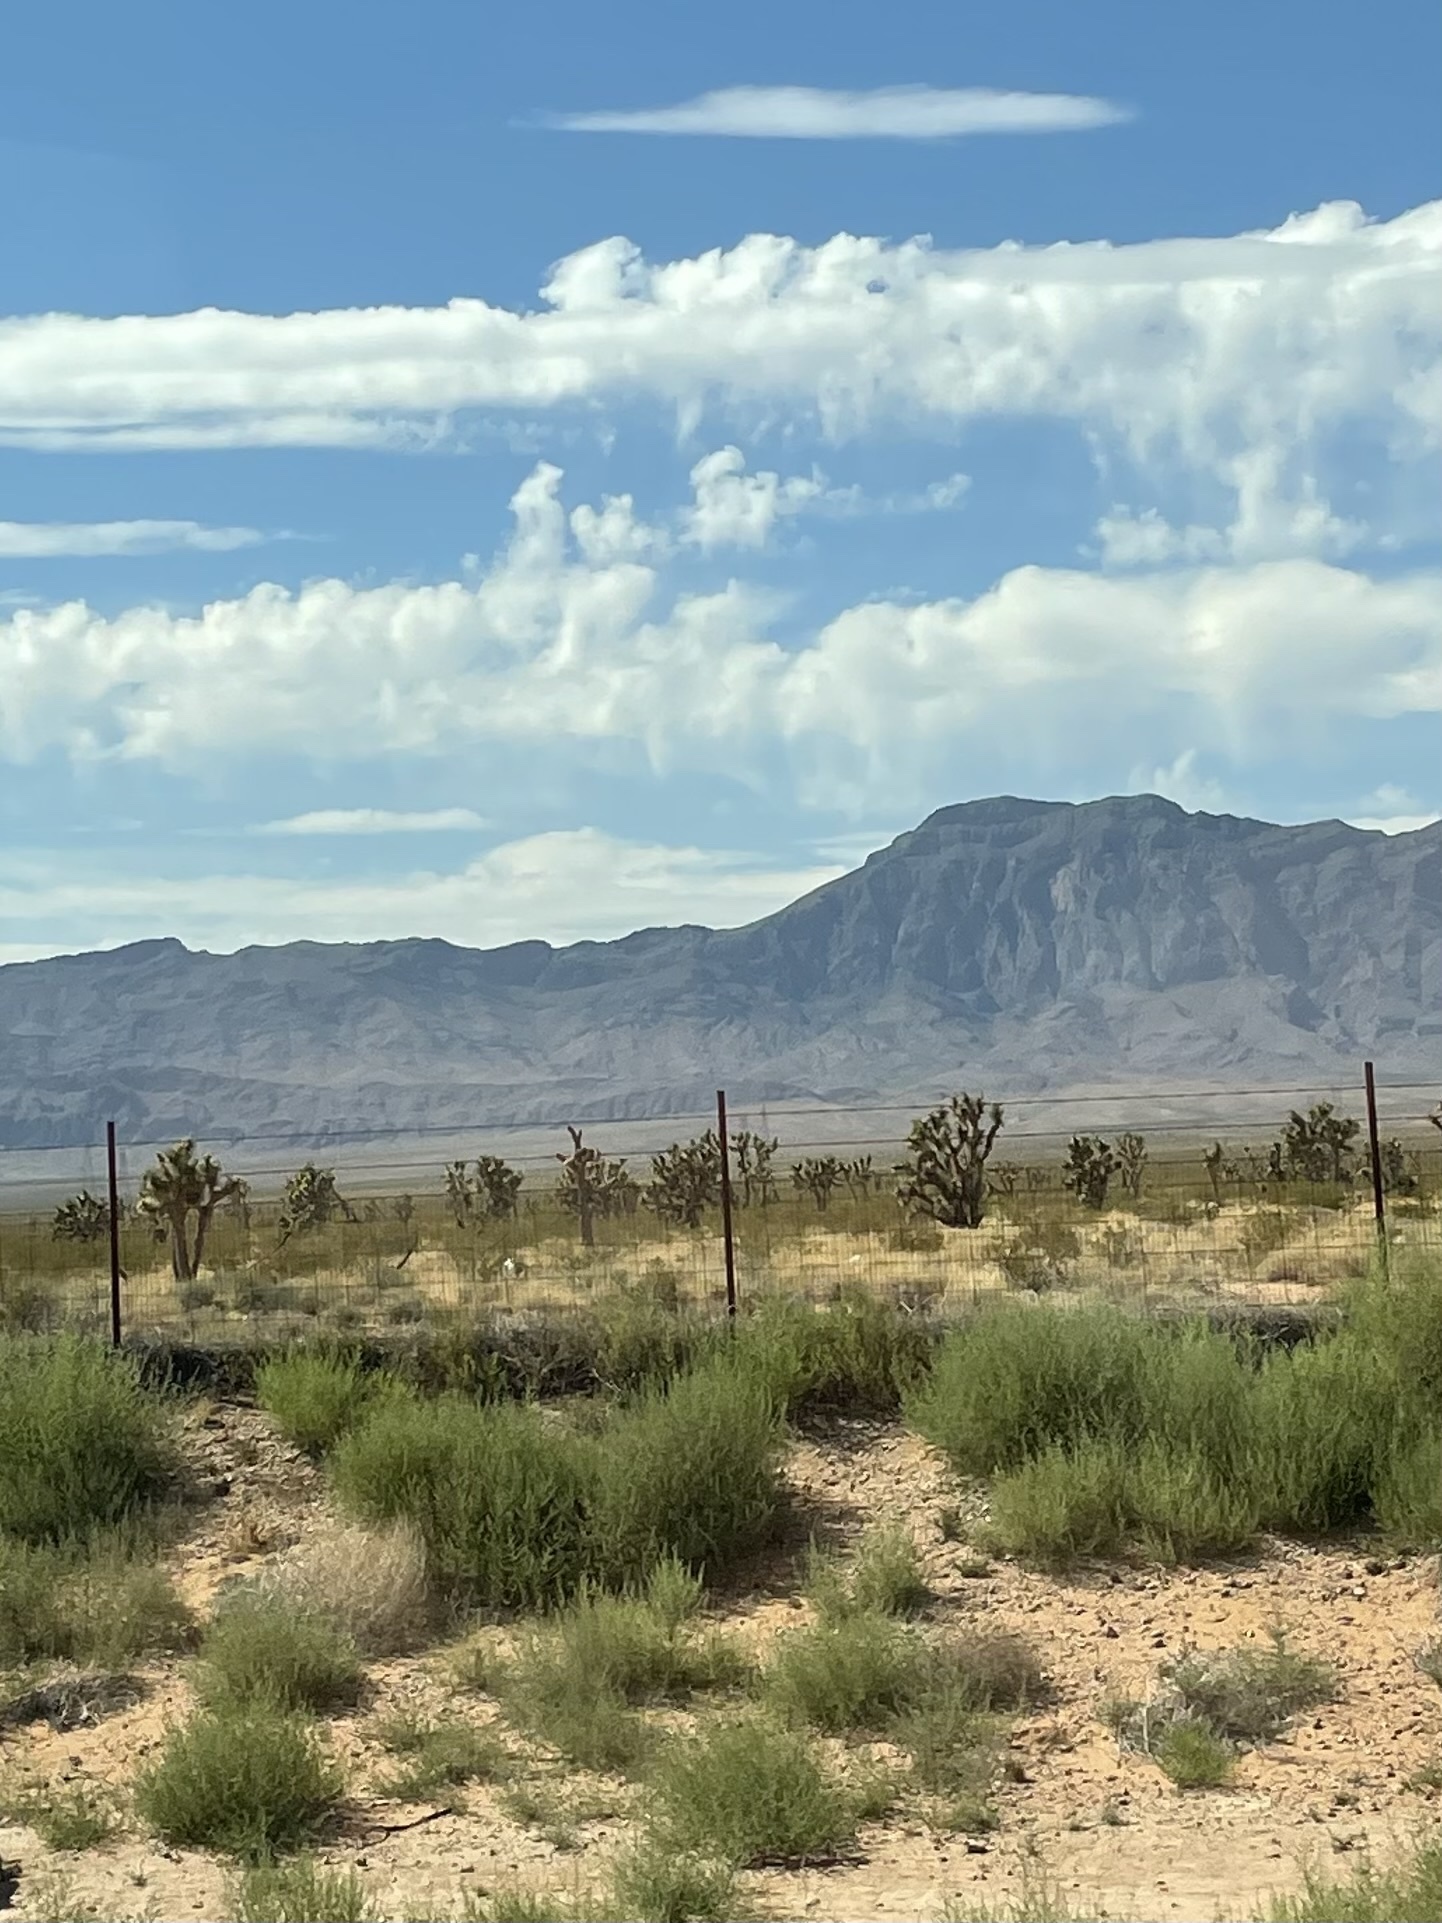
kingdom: Plantae
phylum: Tracheophyta
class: Liliopsida
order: Asparagales
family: Asparagaceae
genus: Yucca
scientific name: Yucca brevifolia
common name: Joshua tree
